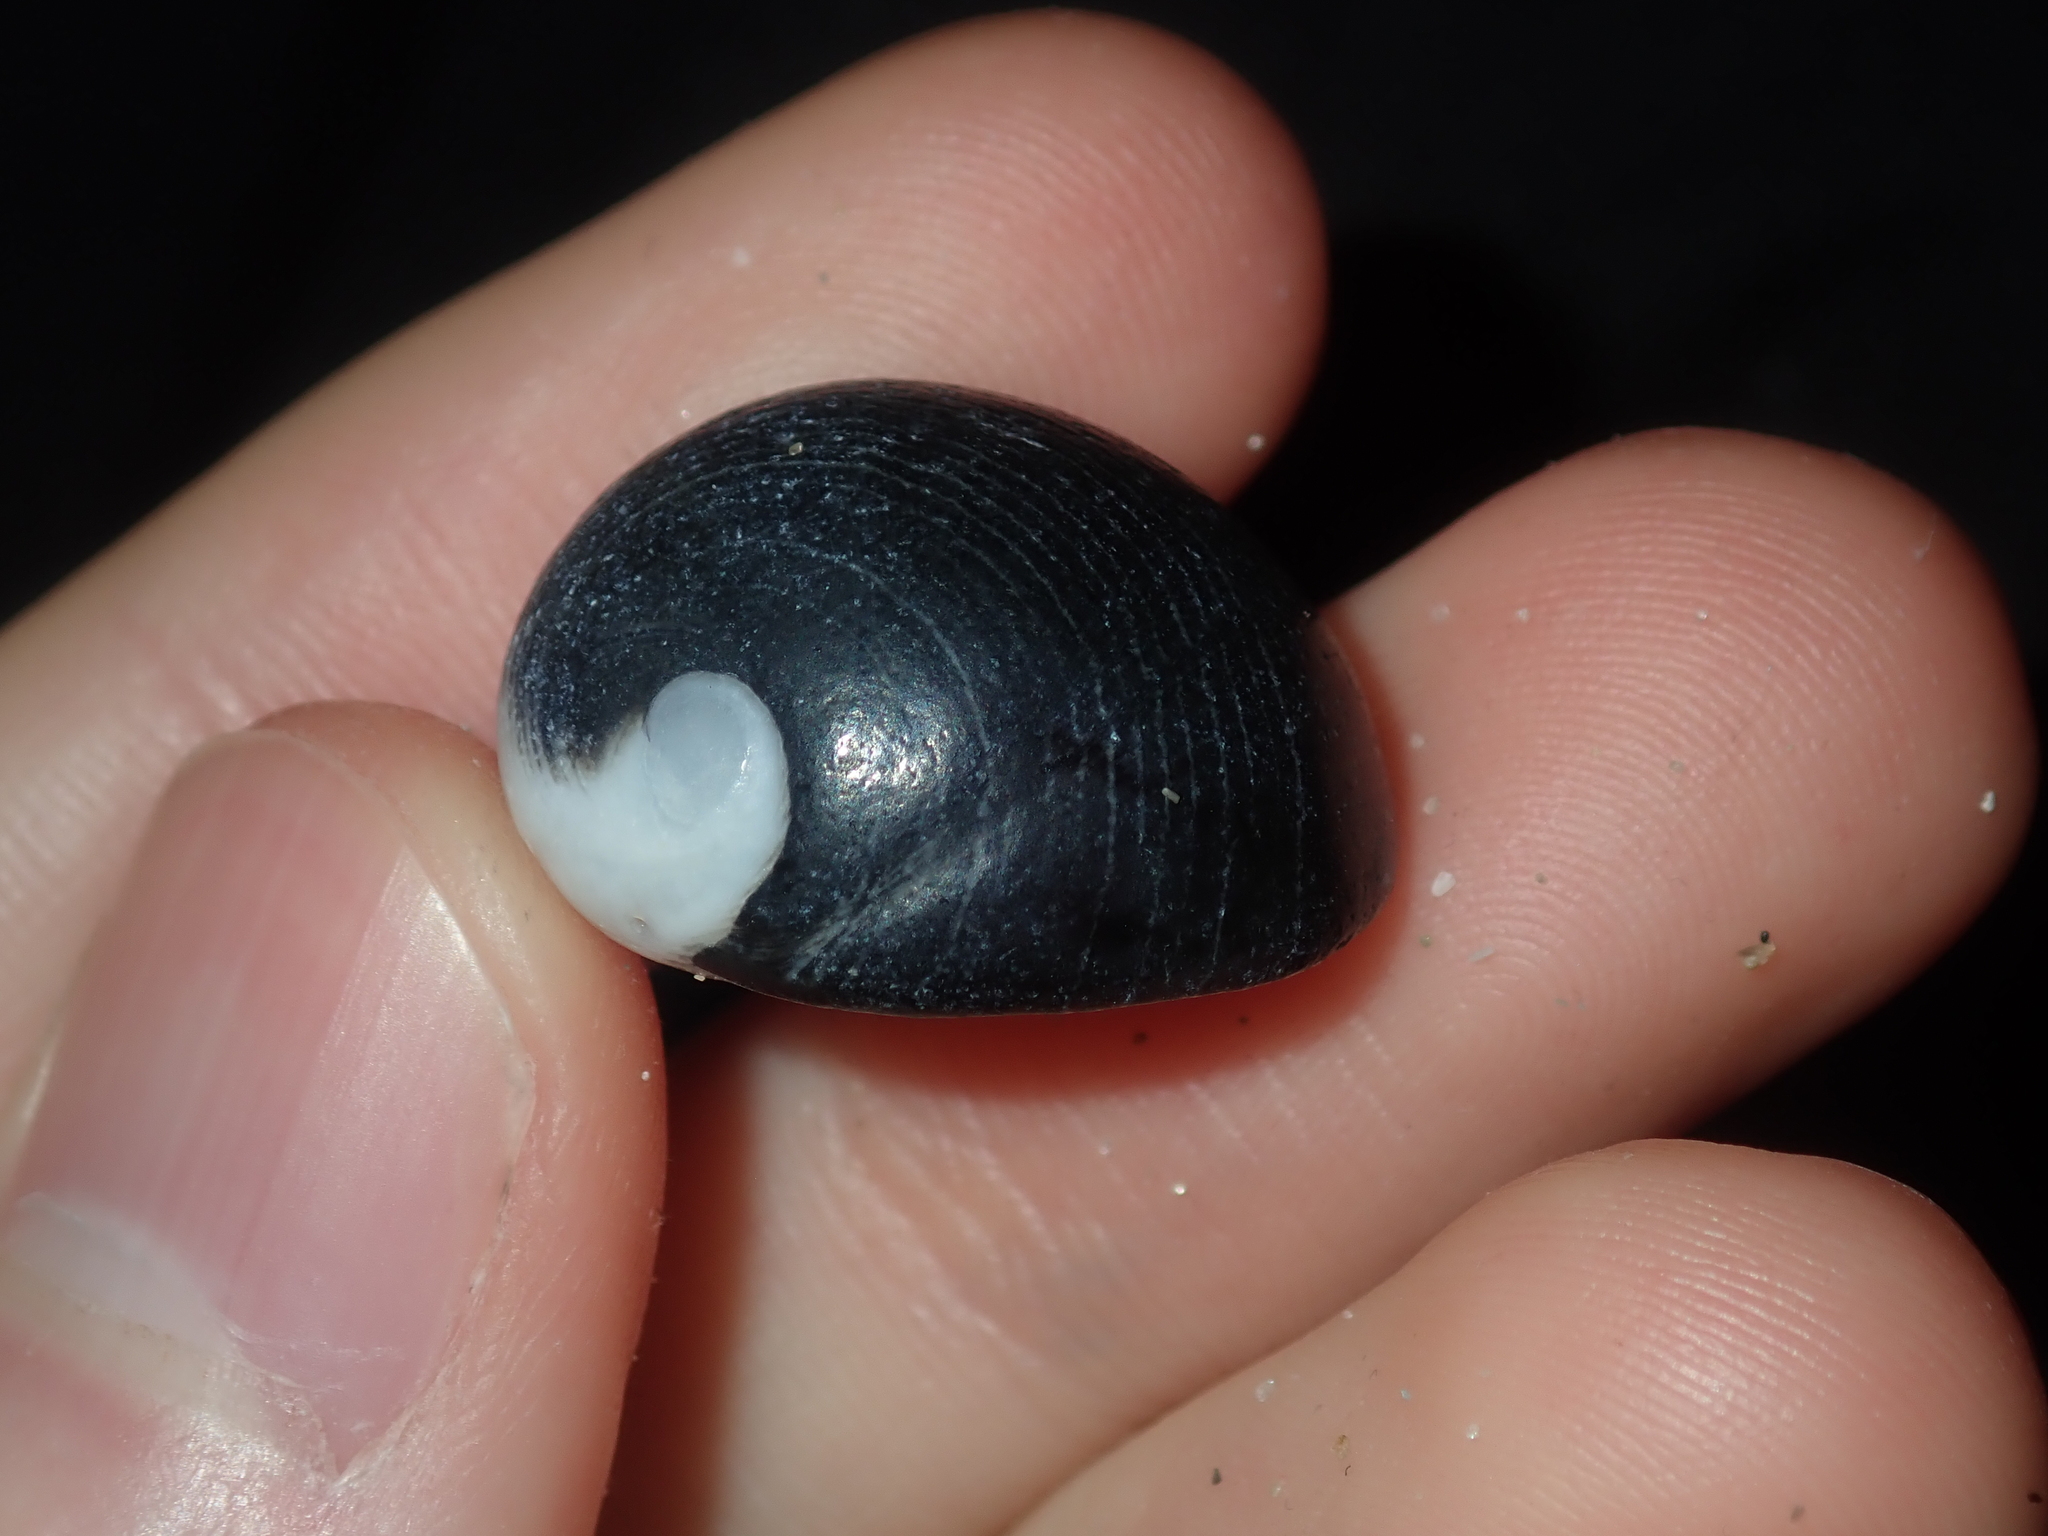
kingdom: Animalia
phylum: Mollusca
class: Gastropoda
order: Cycloneritida
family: Neritidae
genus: Nerita
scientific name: Nerita atramentosa
